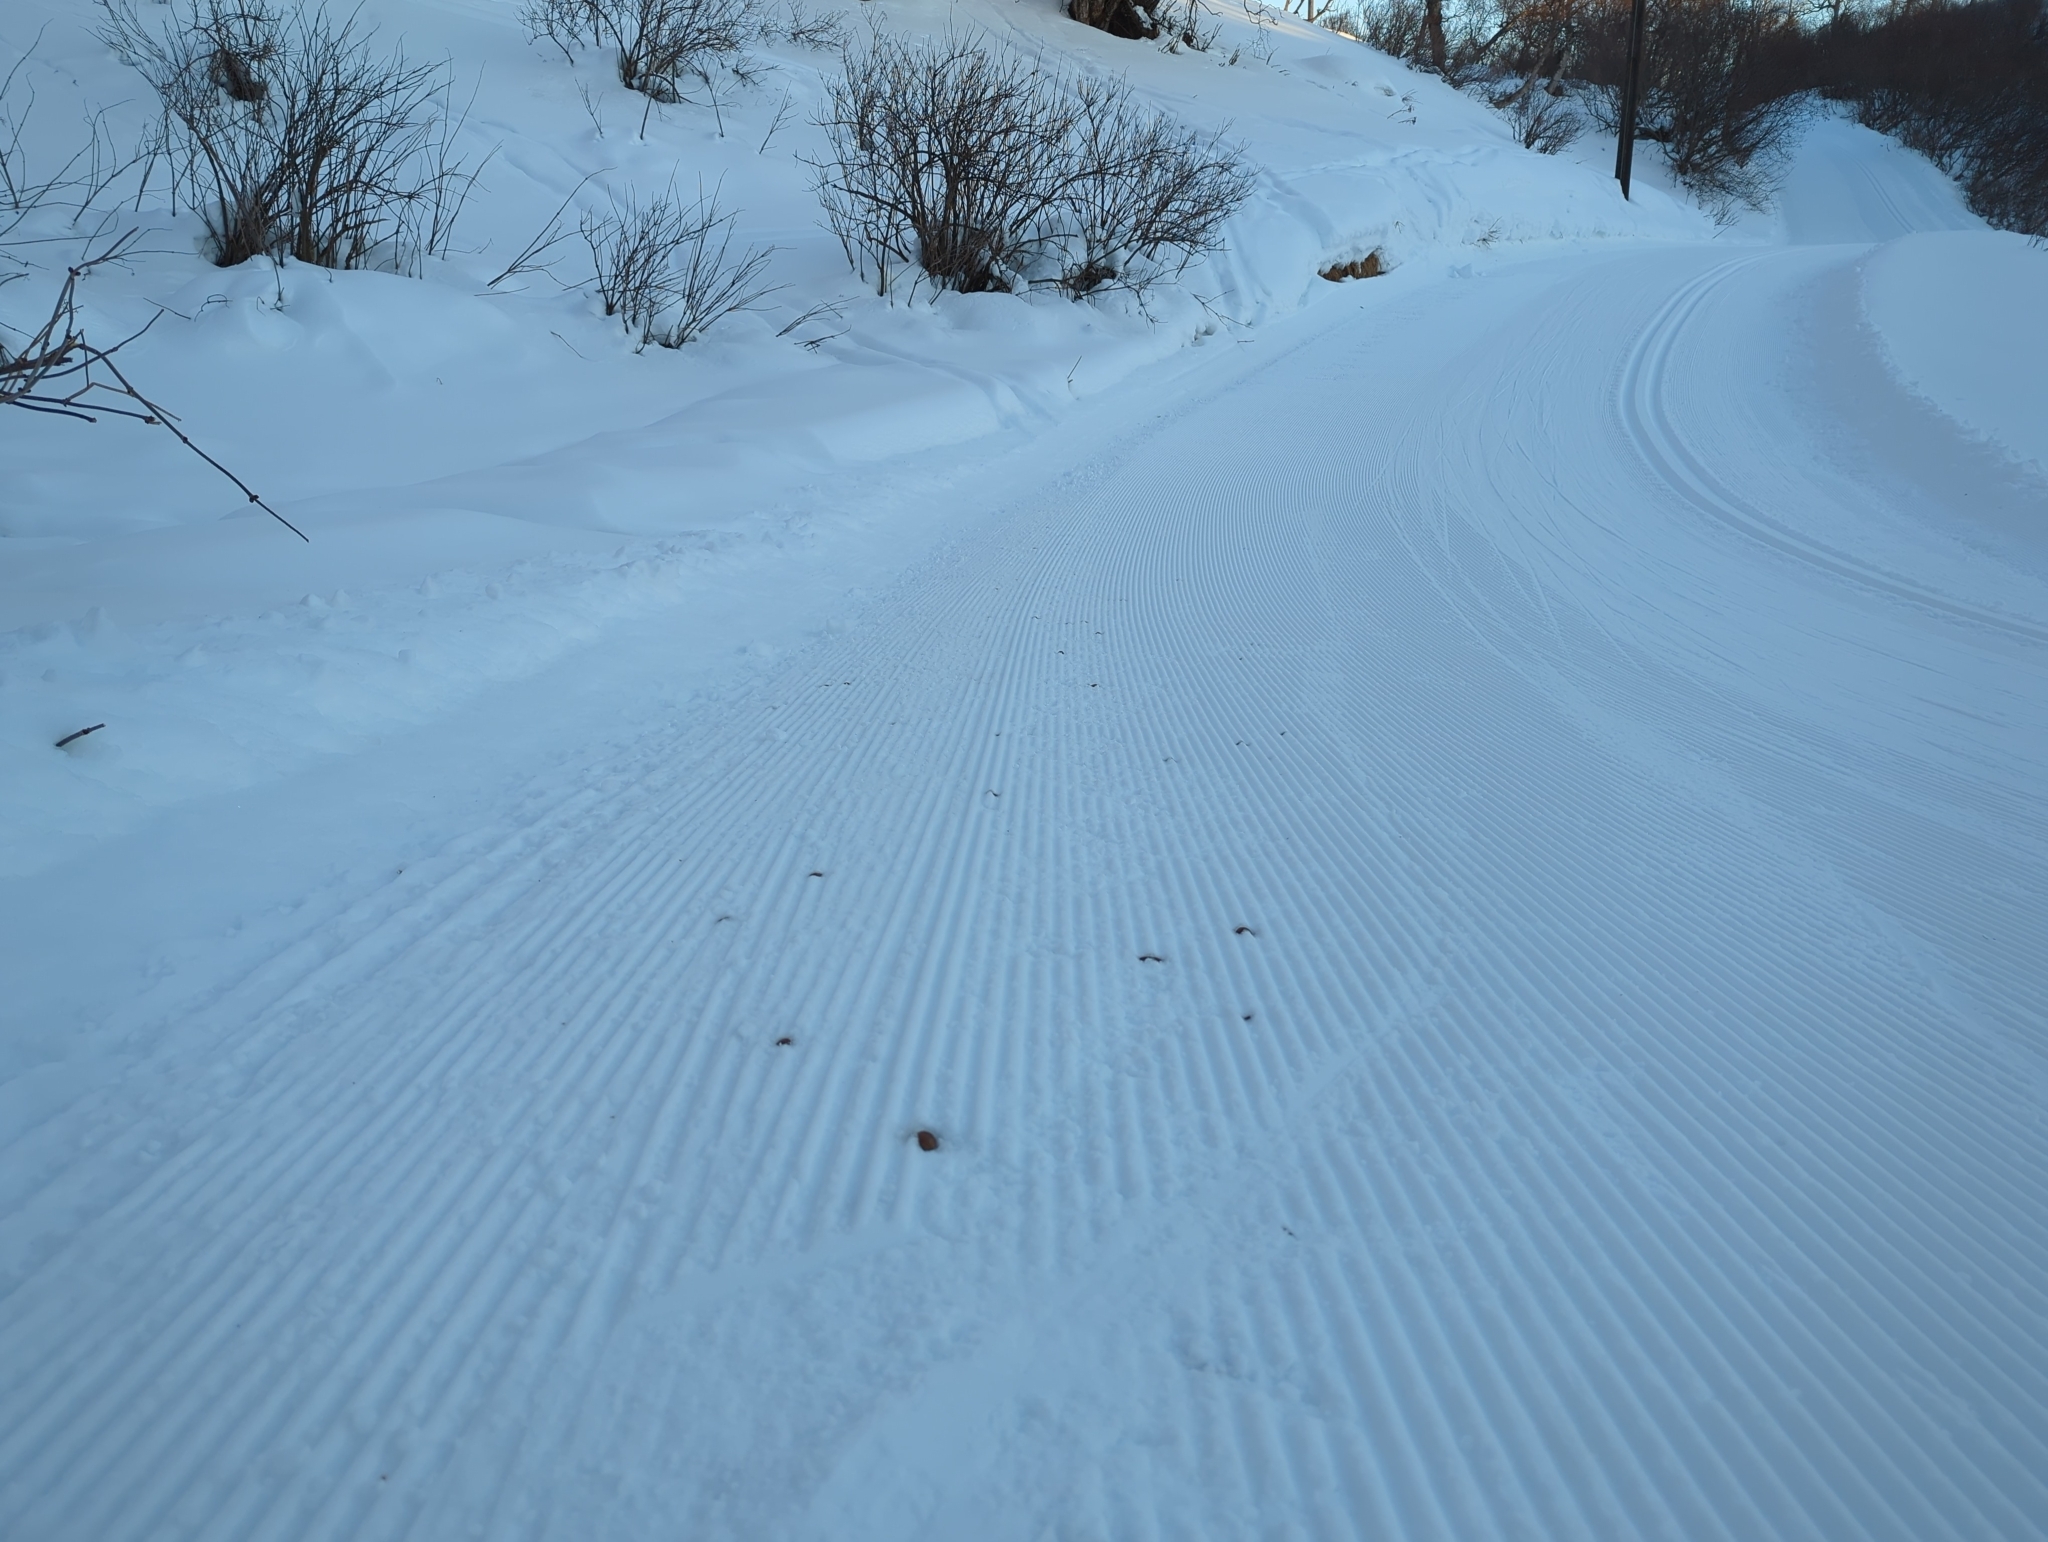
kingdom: Animalia
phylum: Chordata
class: Mammalia
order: Artiodactyla
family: Cervidae
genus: Alces
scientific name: Alces alces
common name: Moose
